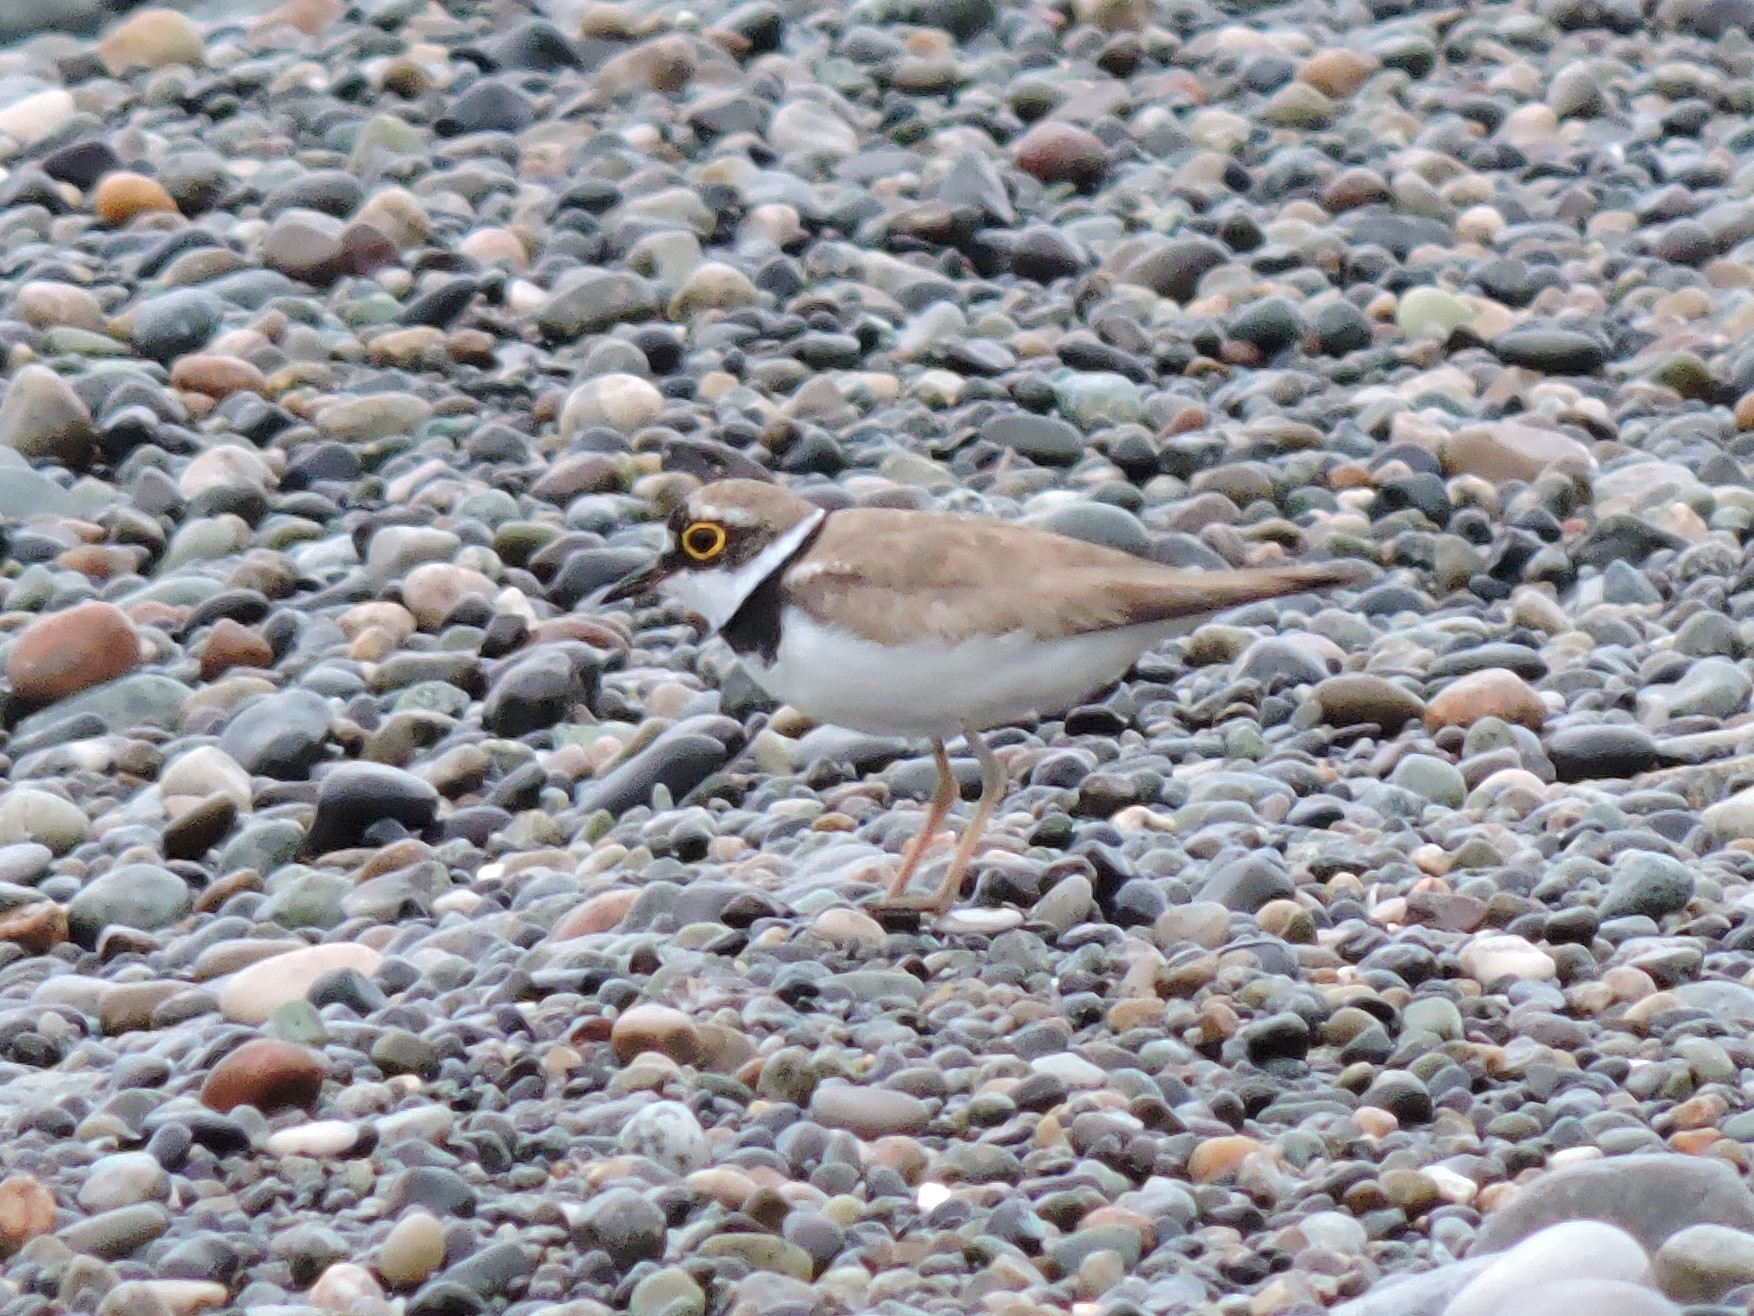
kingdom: Animalia
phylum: Chordata
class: Aves
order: Charadriiformes
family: Charadriidae
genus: Charadrius
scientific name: Charadrius dubius
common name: Little ringed plover
